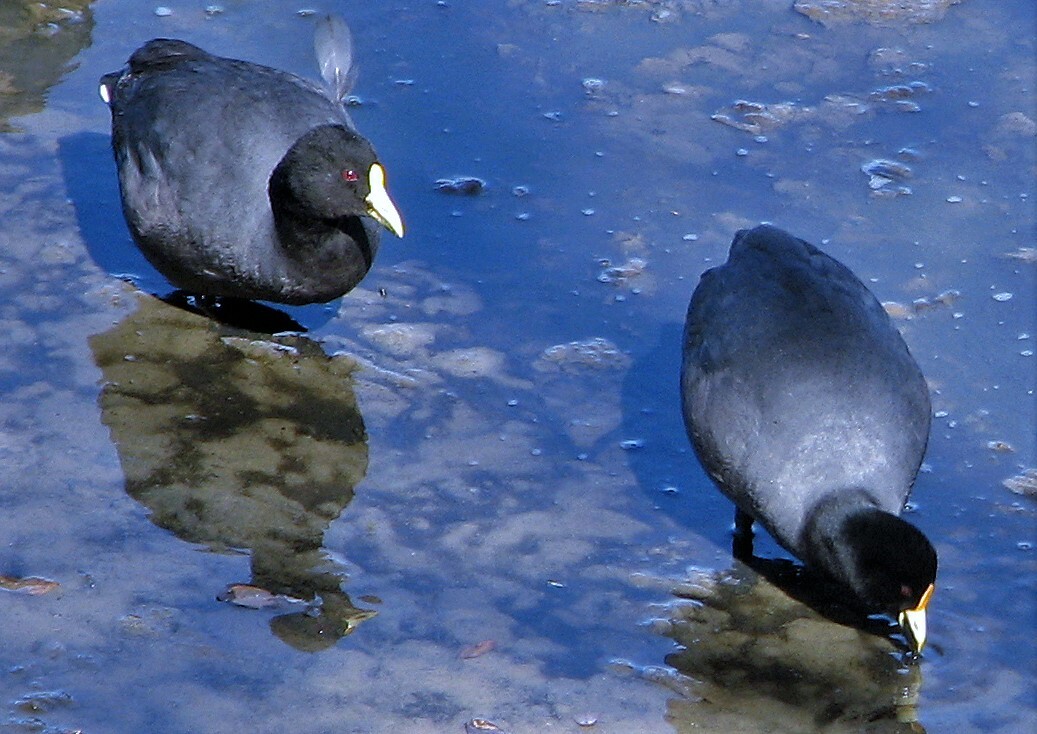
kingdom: Animalia
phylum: Chordata
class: Aves
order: Gruiformes
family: Rallidae
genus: Fulica
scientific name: Fulica leucoptera
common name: White-winged coot
